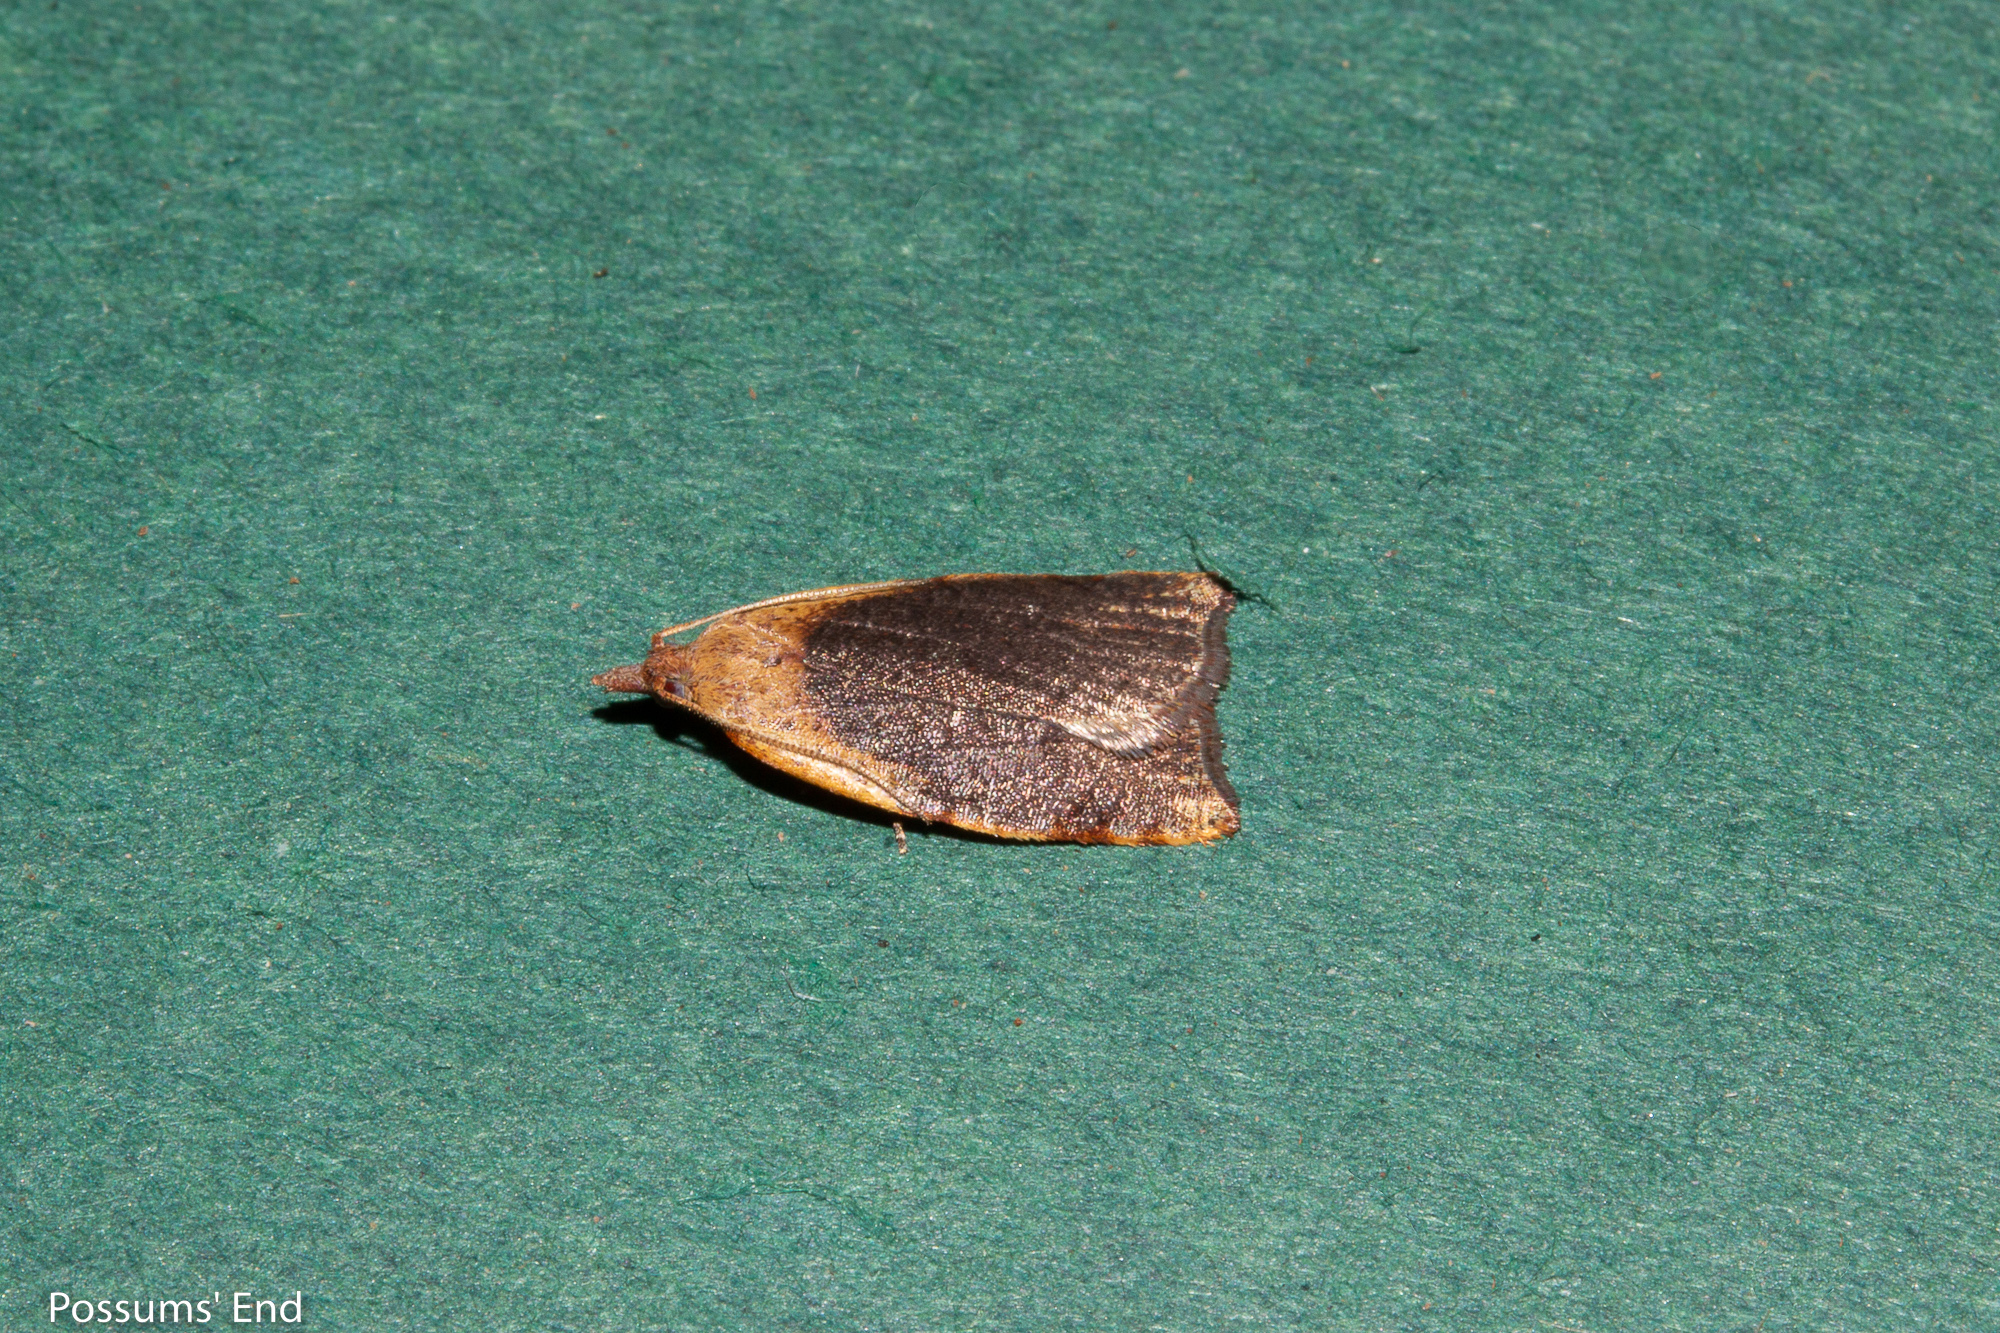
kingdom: Animalia
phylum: Arthropoda
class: Insecta
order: Lepidoptera
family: Tortricidae
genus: Apoctena
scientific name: Apoctena flavescens
